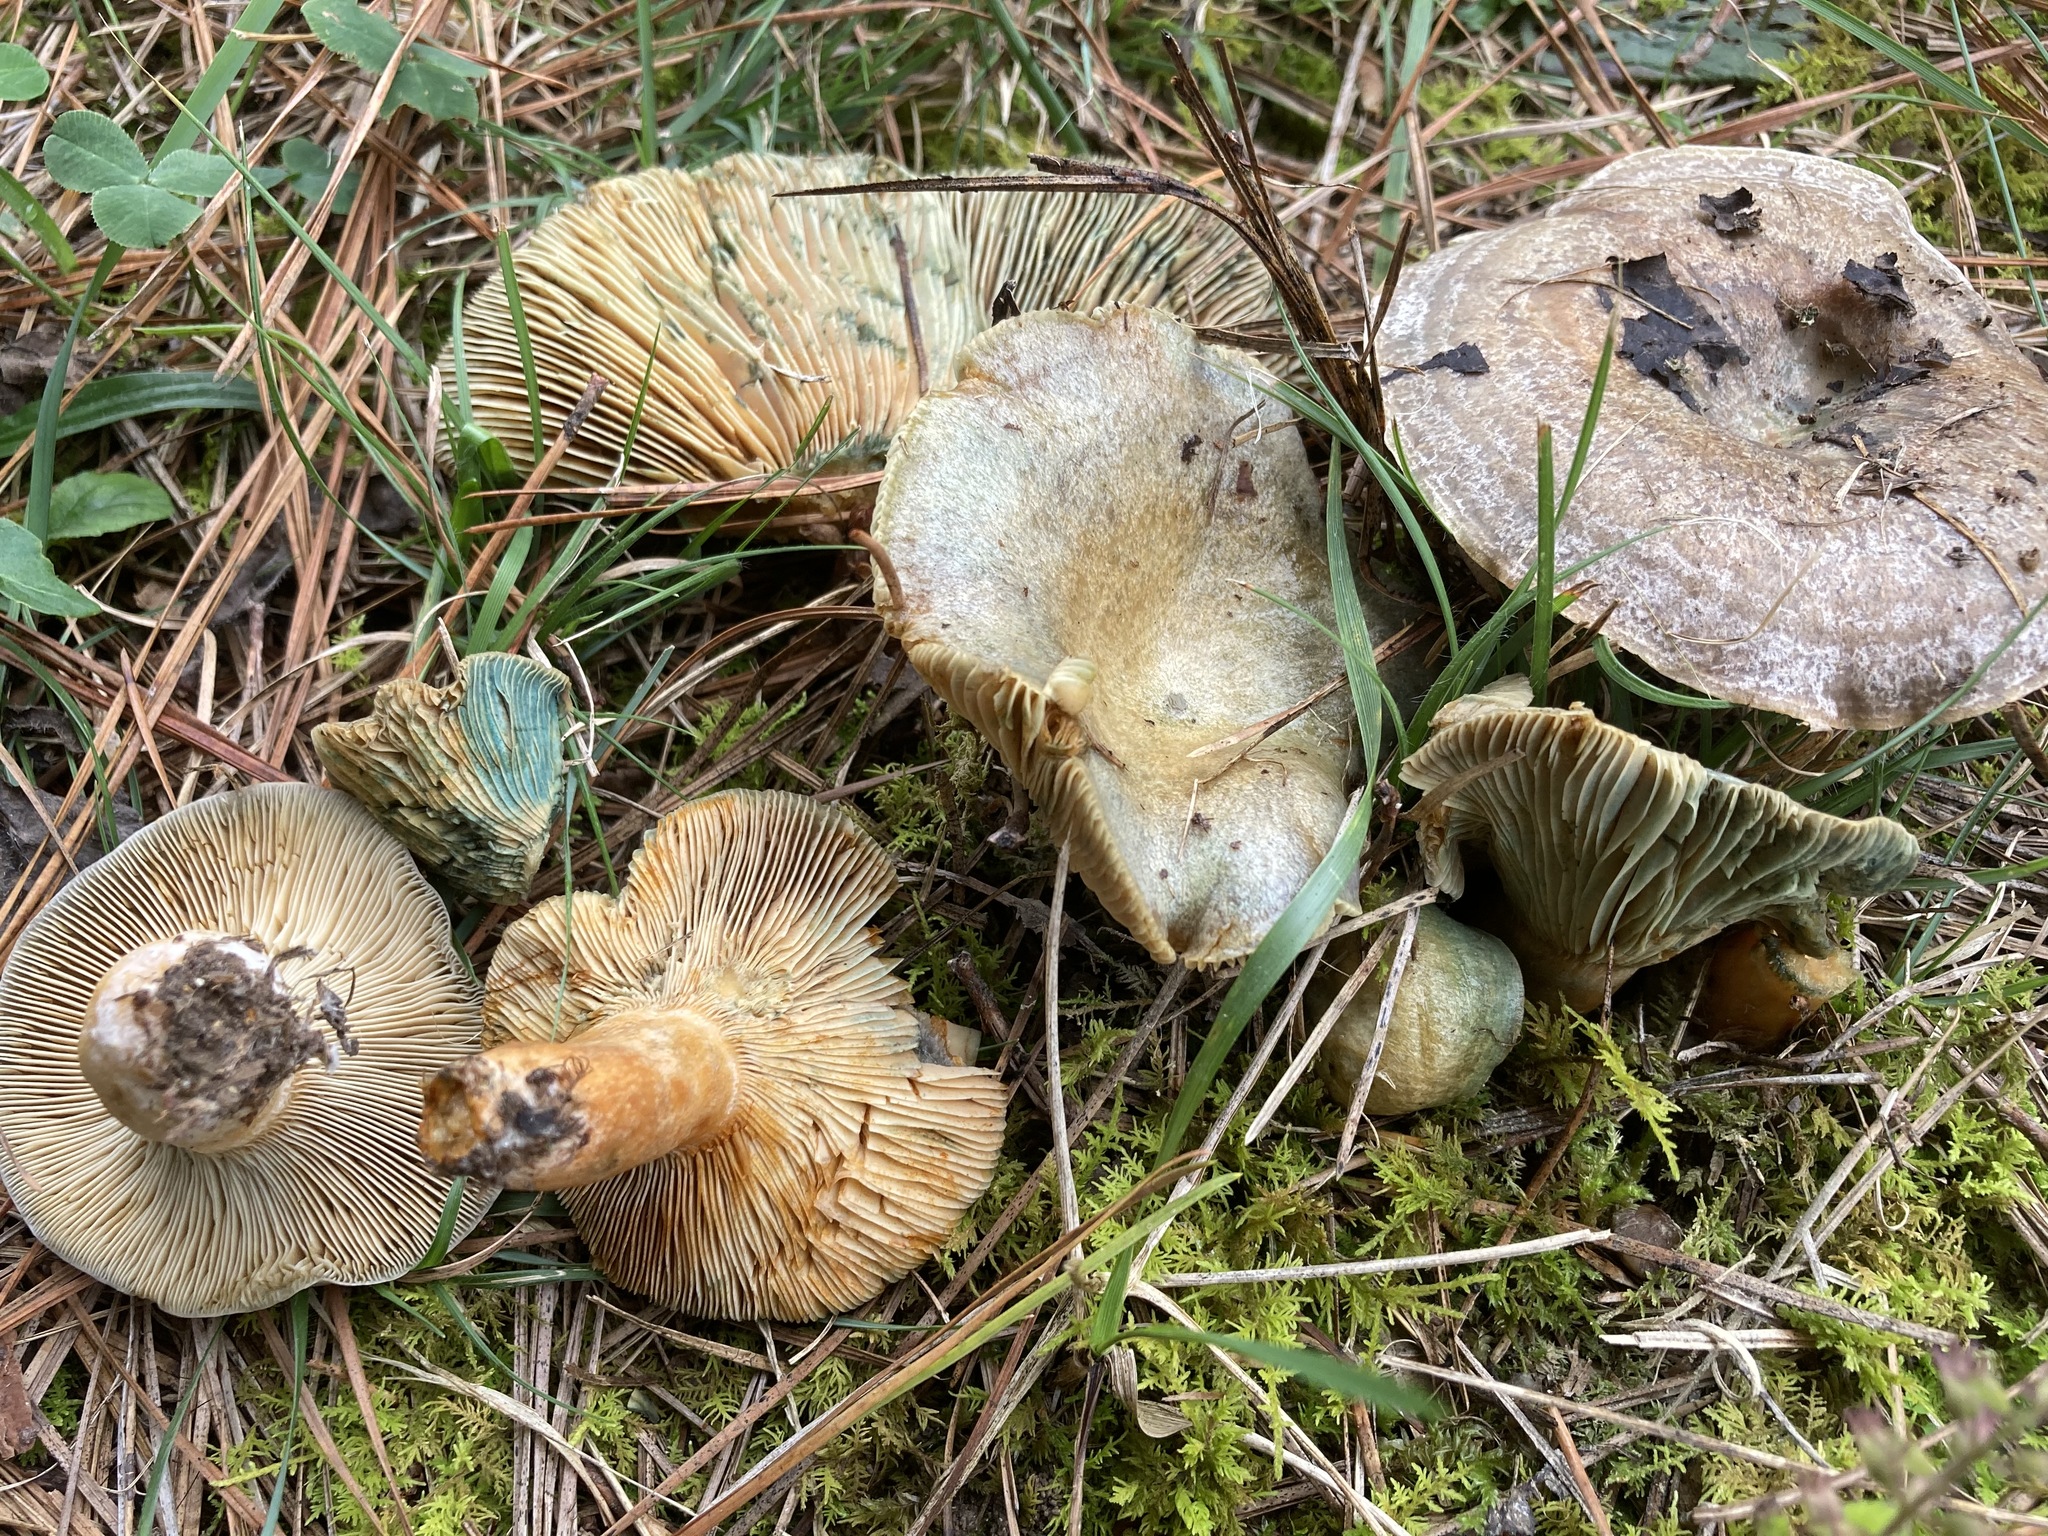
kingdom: Fungi
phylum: Basidiomycota
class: Agaricomycetes
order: Russulales
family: Russulaceae
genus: Lactarius
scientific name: Lactarius paradoxus
